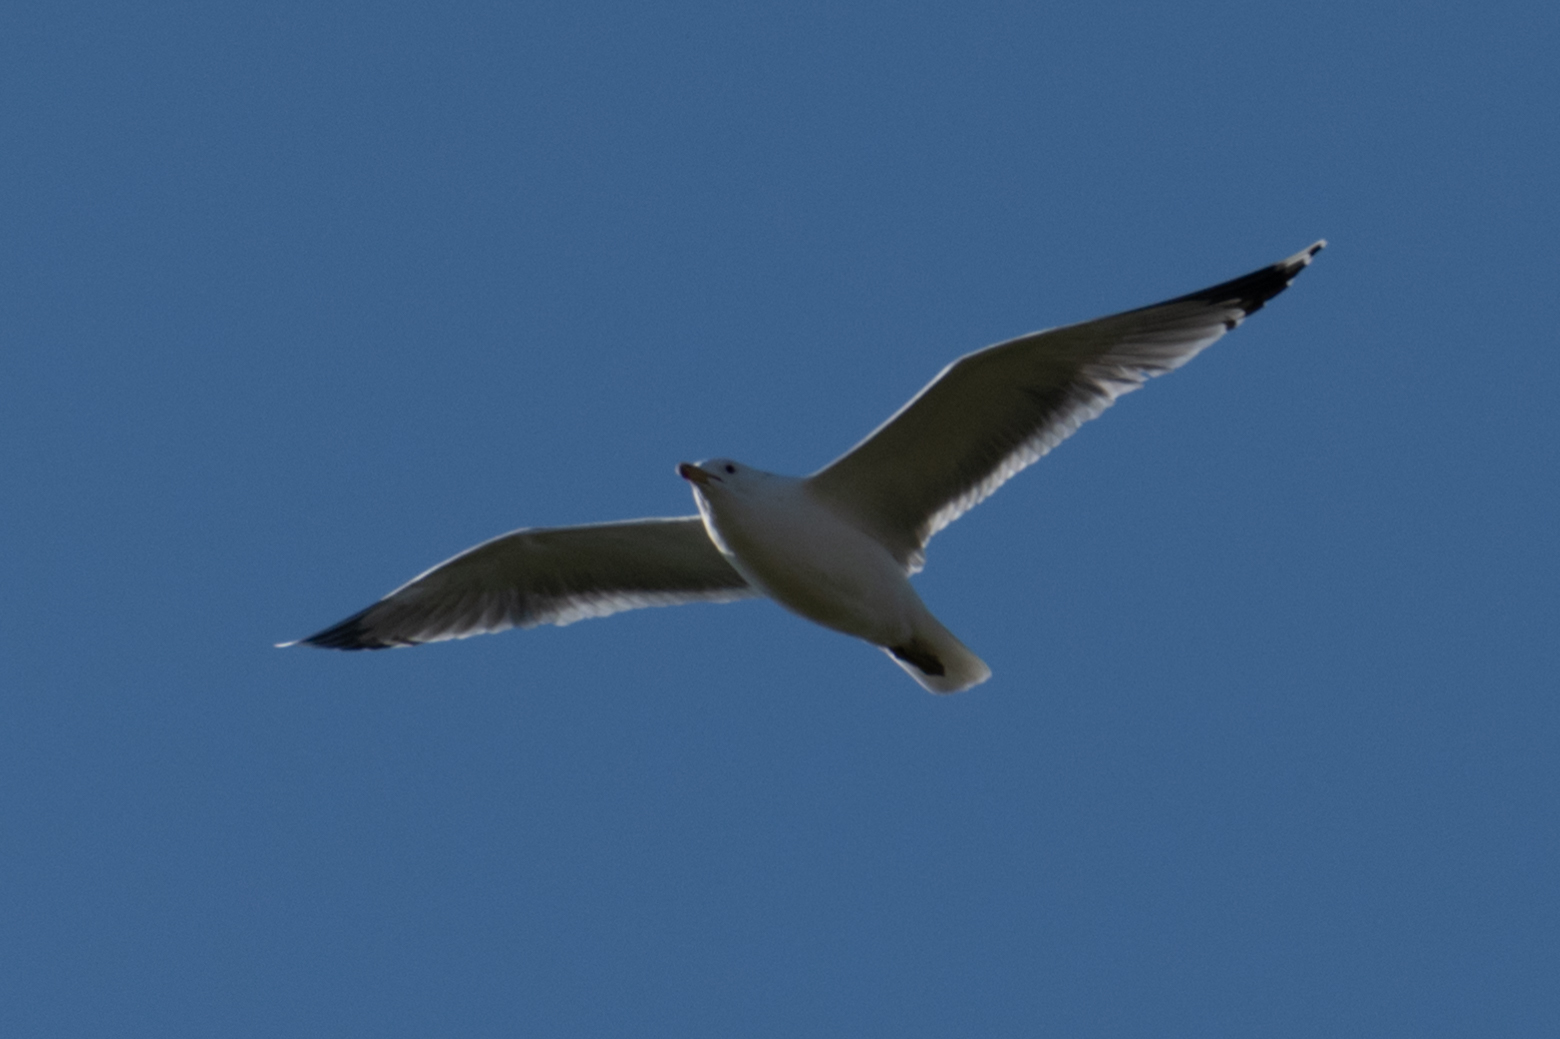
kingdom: Animalia
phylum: Chordata
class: Aves
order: Charadriiformes
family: Laridae
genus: Larus
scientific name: Larus californicus
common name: California gull
